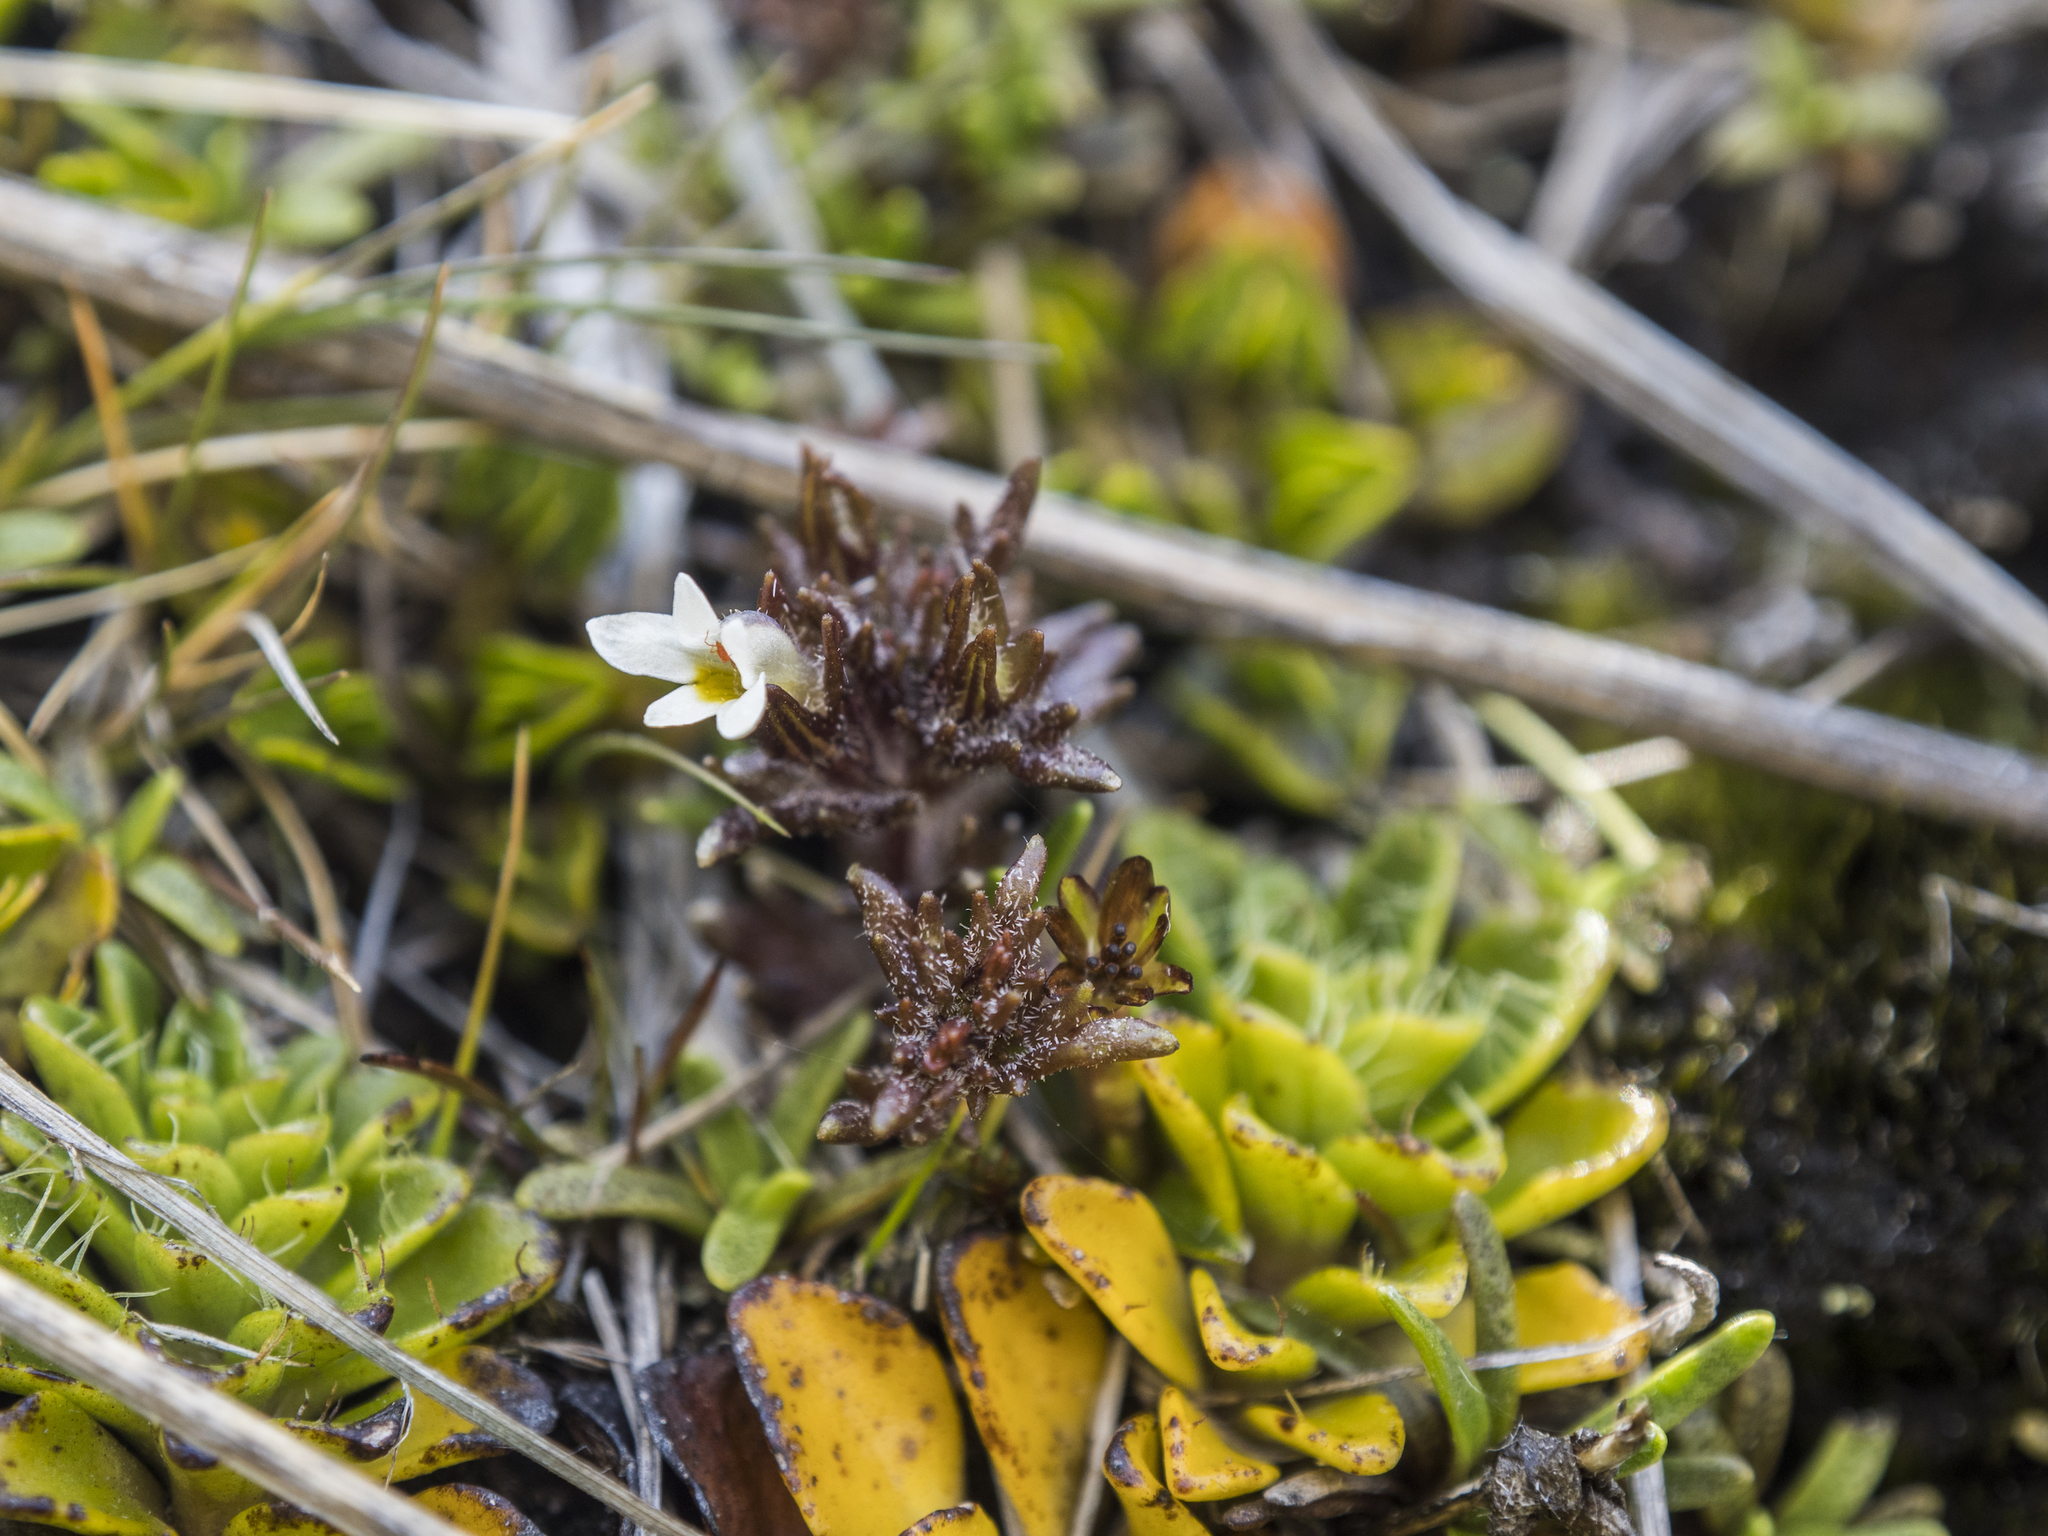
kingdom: Plantae
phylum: Tracheophyta
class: Magnoliopsida
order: Lamiales
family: Orobanchaceae
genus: Euphrasia
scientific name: Euphrasia zelandica
